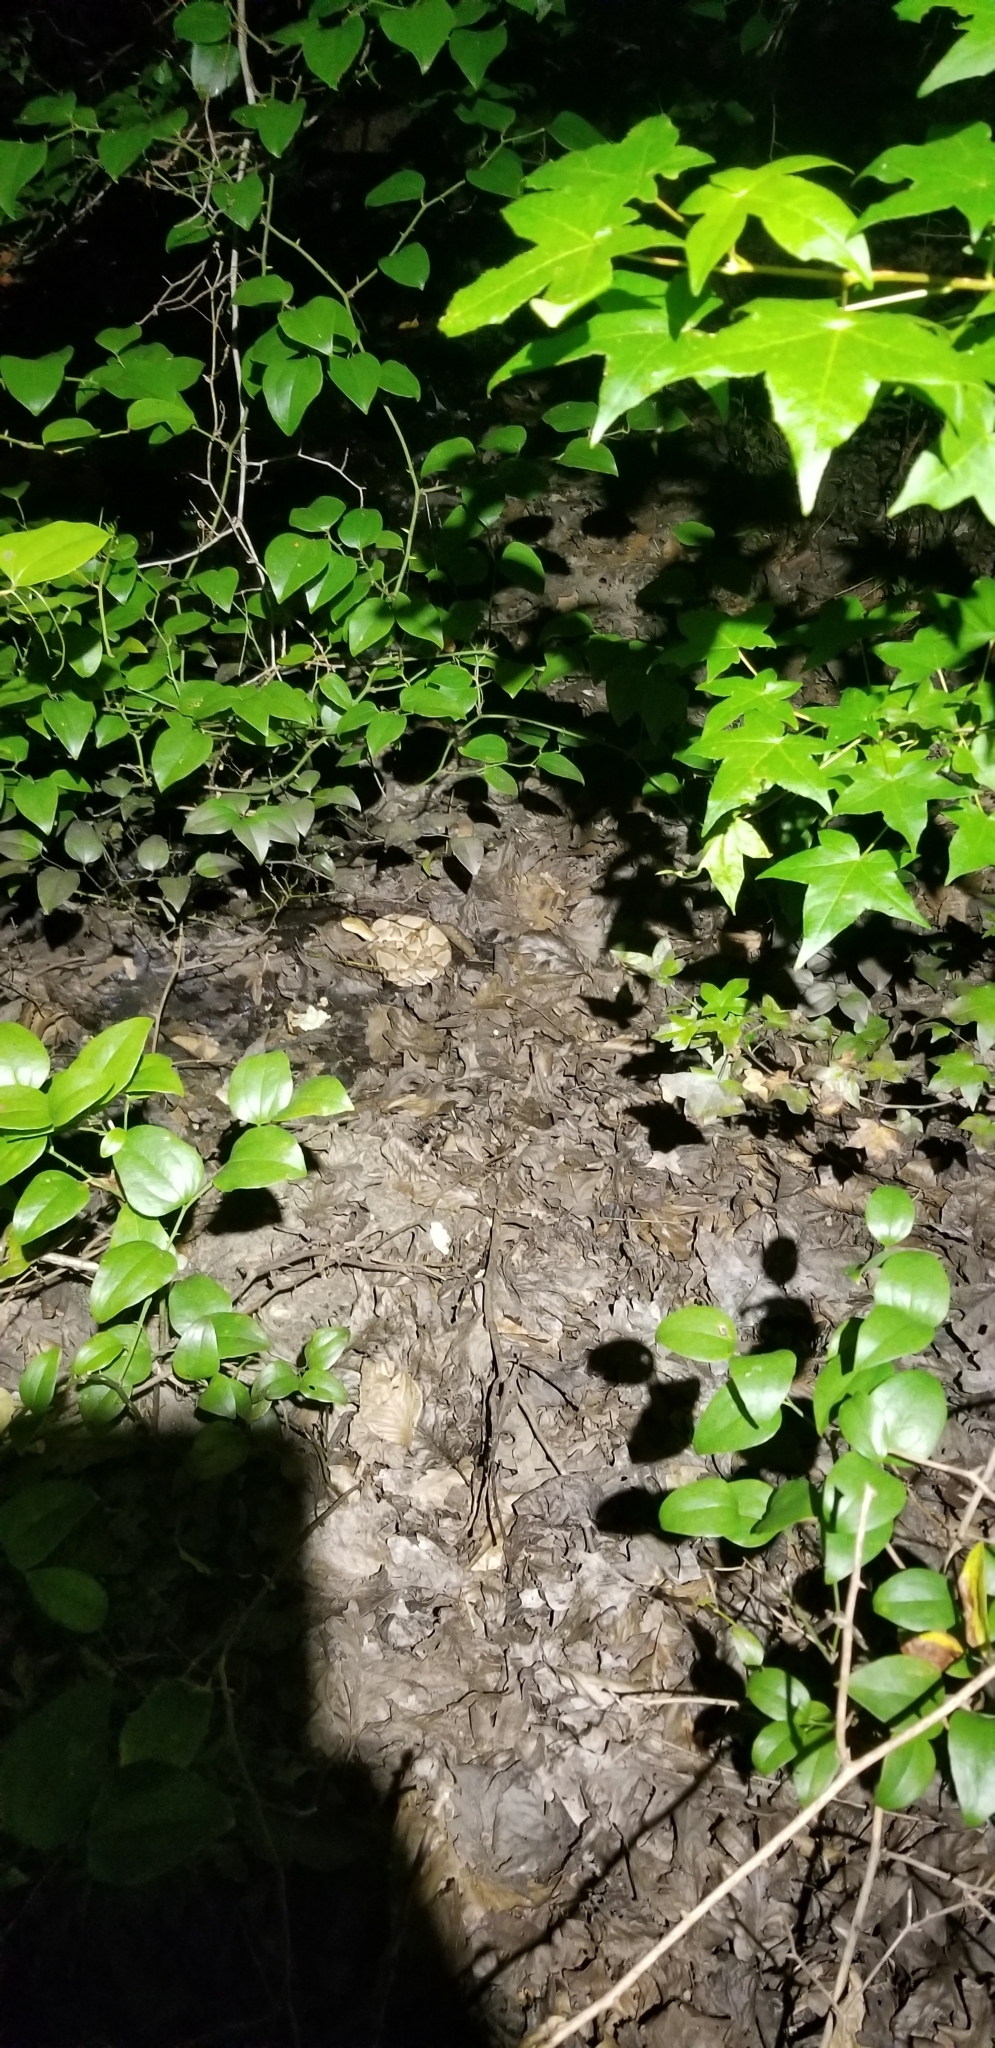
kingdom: Animalia
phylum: Chordata
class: Squamata
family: Viperidae
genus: Agkistrodon
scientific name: Agkistrodon contortrix
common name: Northern copperhead
